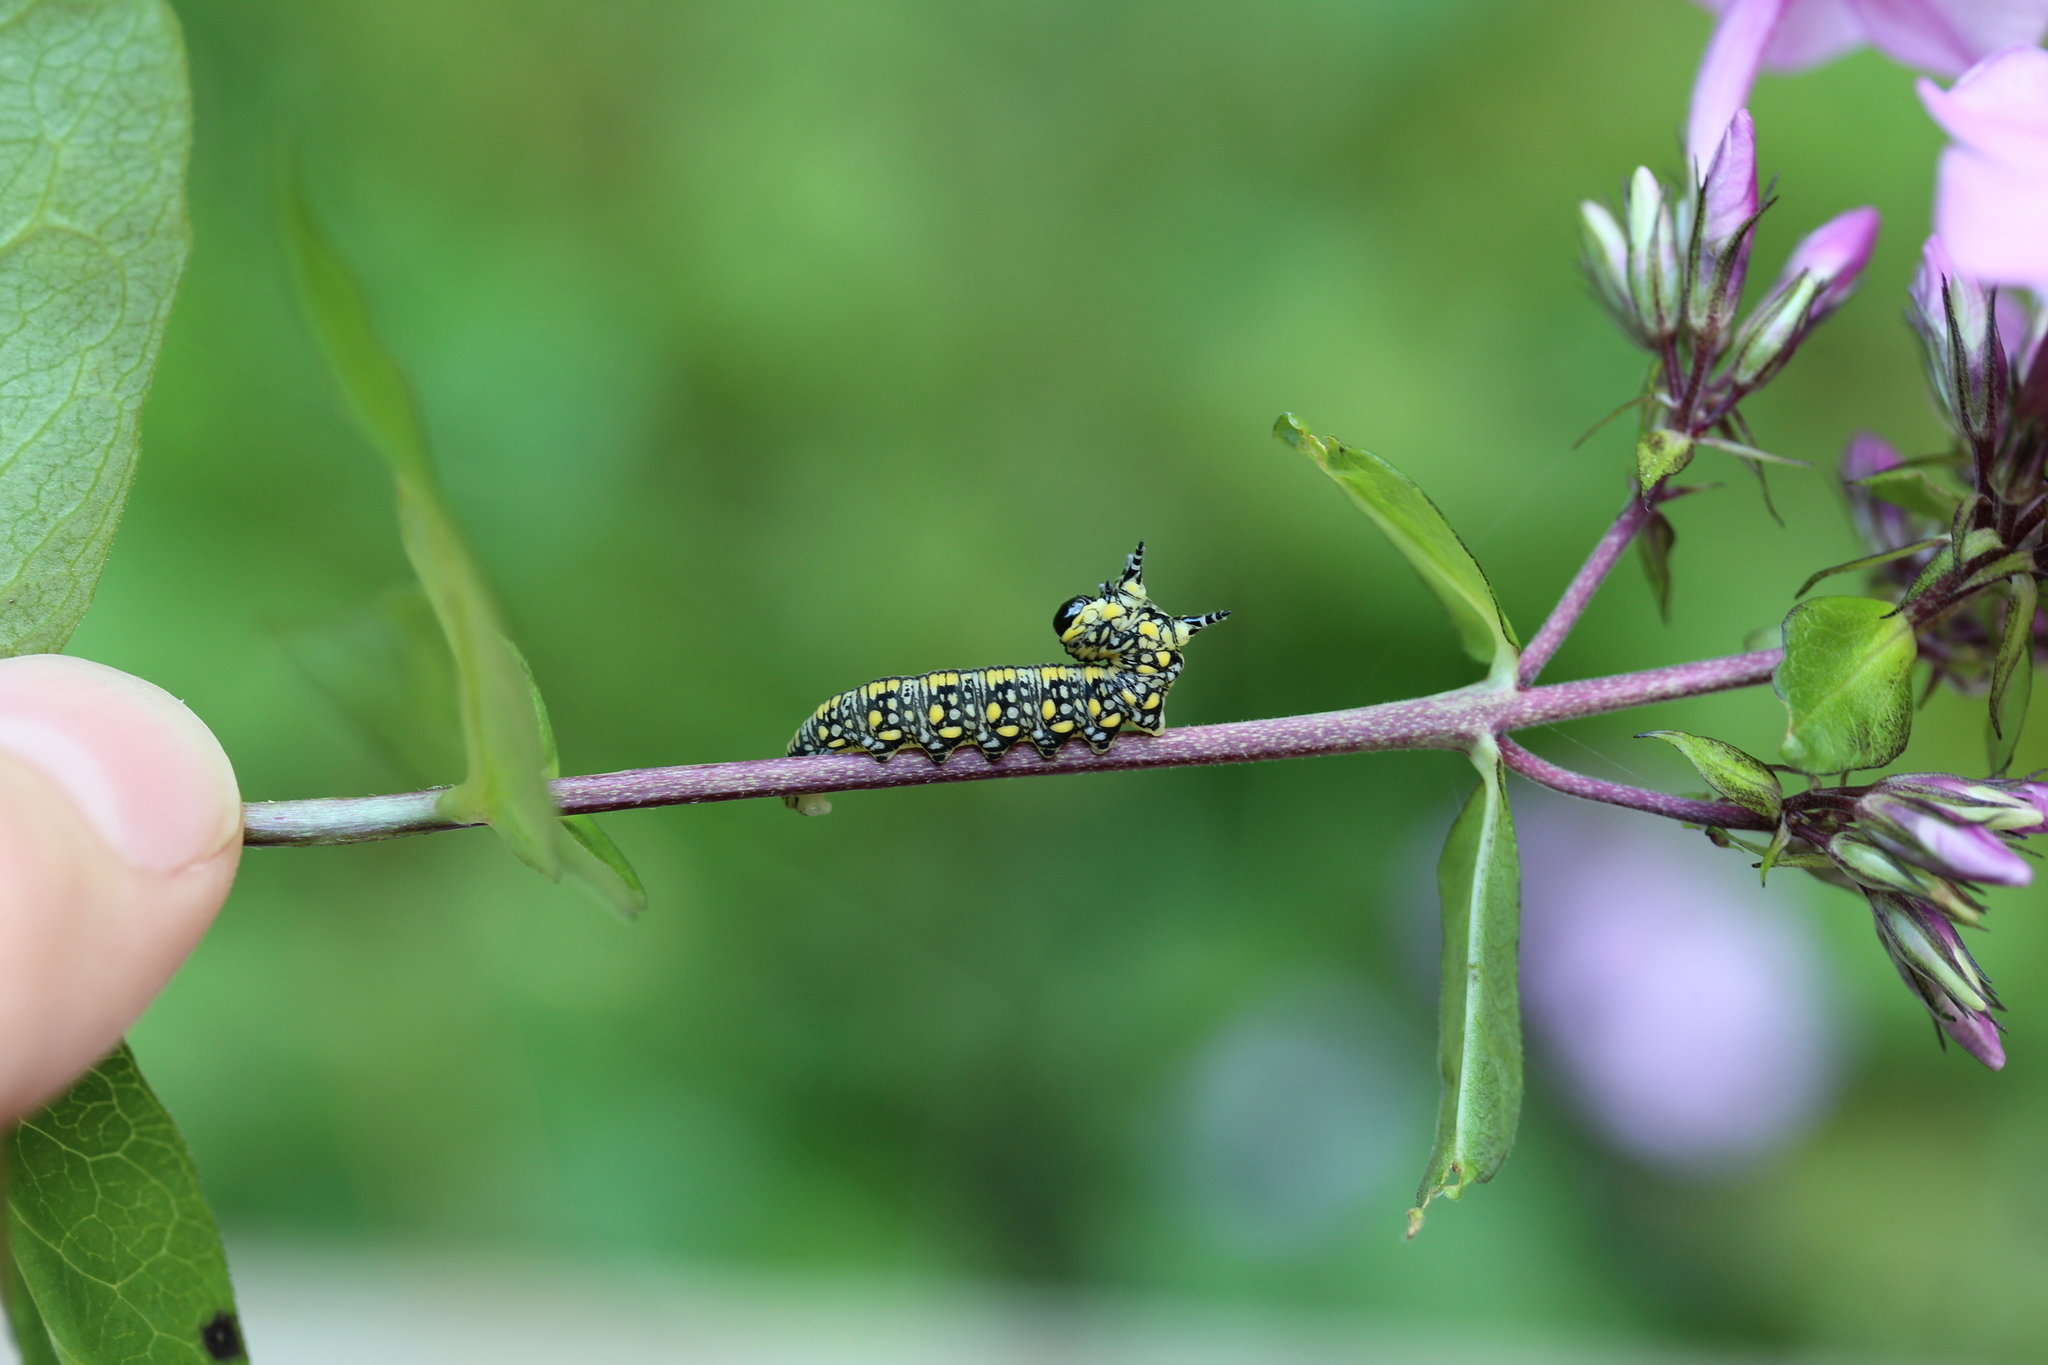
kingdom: Animalia
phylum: Arthropoda
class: Insecta
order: Hymenoptera
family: Diprionidae
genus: Diprion
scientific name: Diprion similis
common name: Pine sawfly
